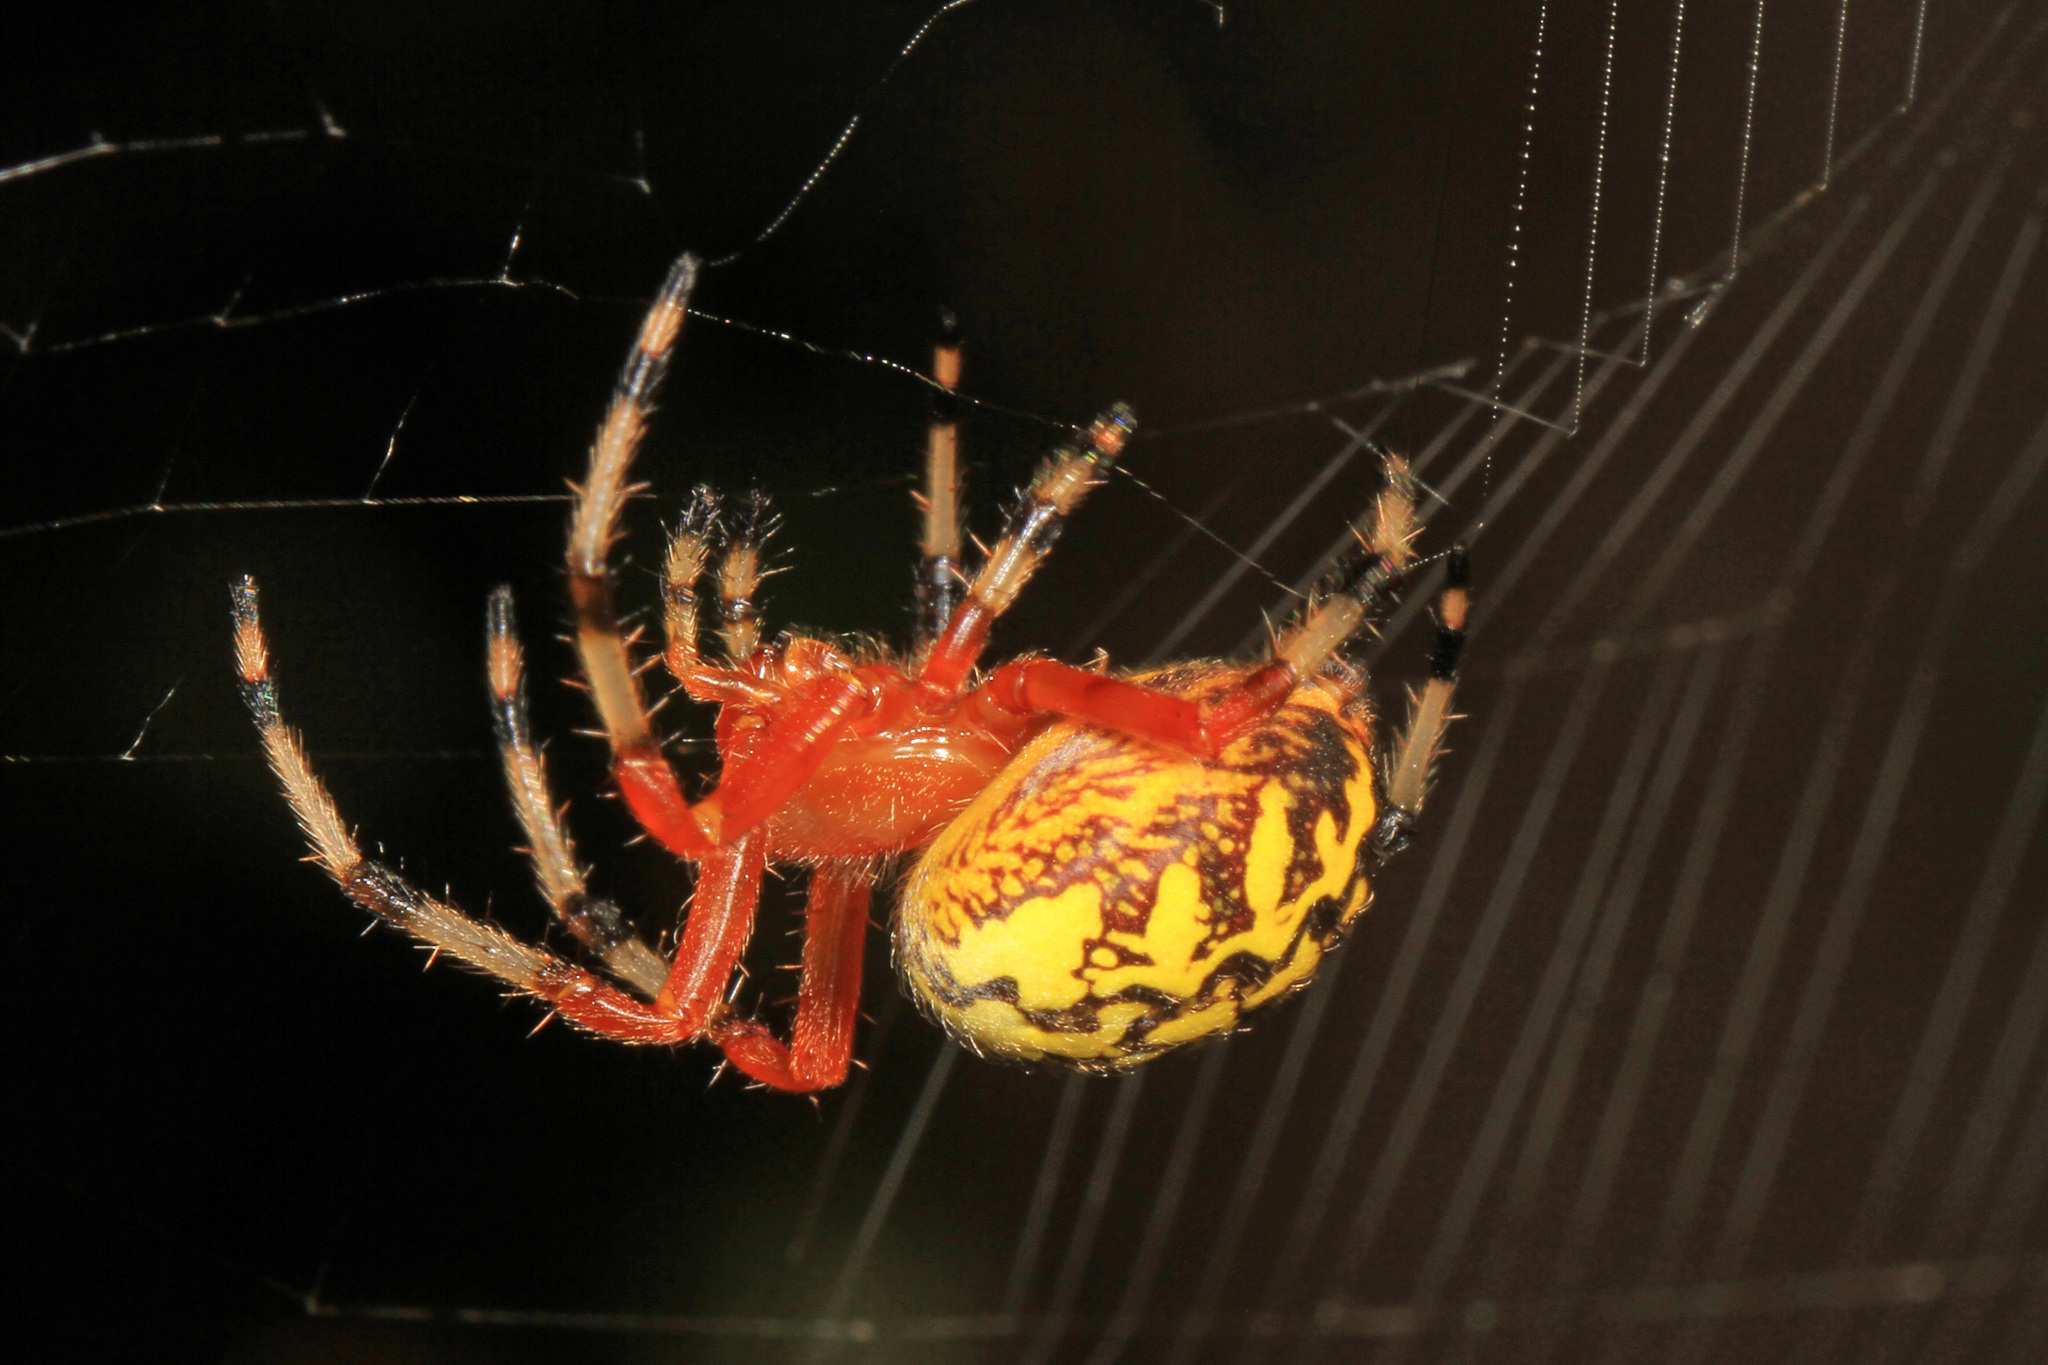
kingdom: Animalia
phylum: Arthropoda
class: Arachnida
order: Araneae
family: Araneidae
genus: Araneus
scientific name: Araneus marmoreus
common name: Marbled orbweaver
